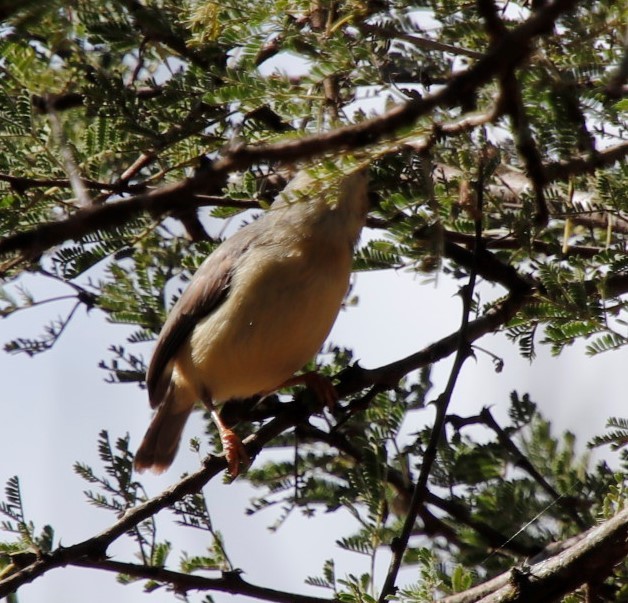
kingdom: Animalia
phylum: Chordata
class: Aves
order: Passeriformes
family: Cisticolidae
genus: Eremomela
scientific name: Eremomela usticollis
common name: Burnt-neck eremomela
